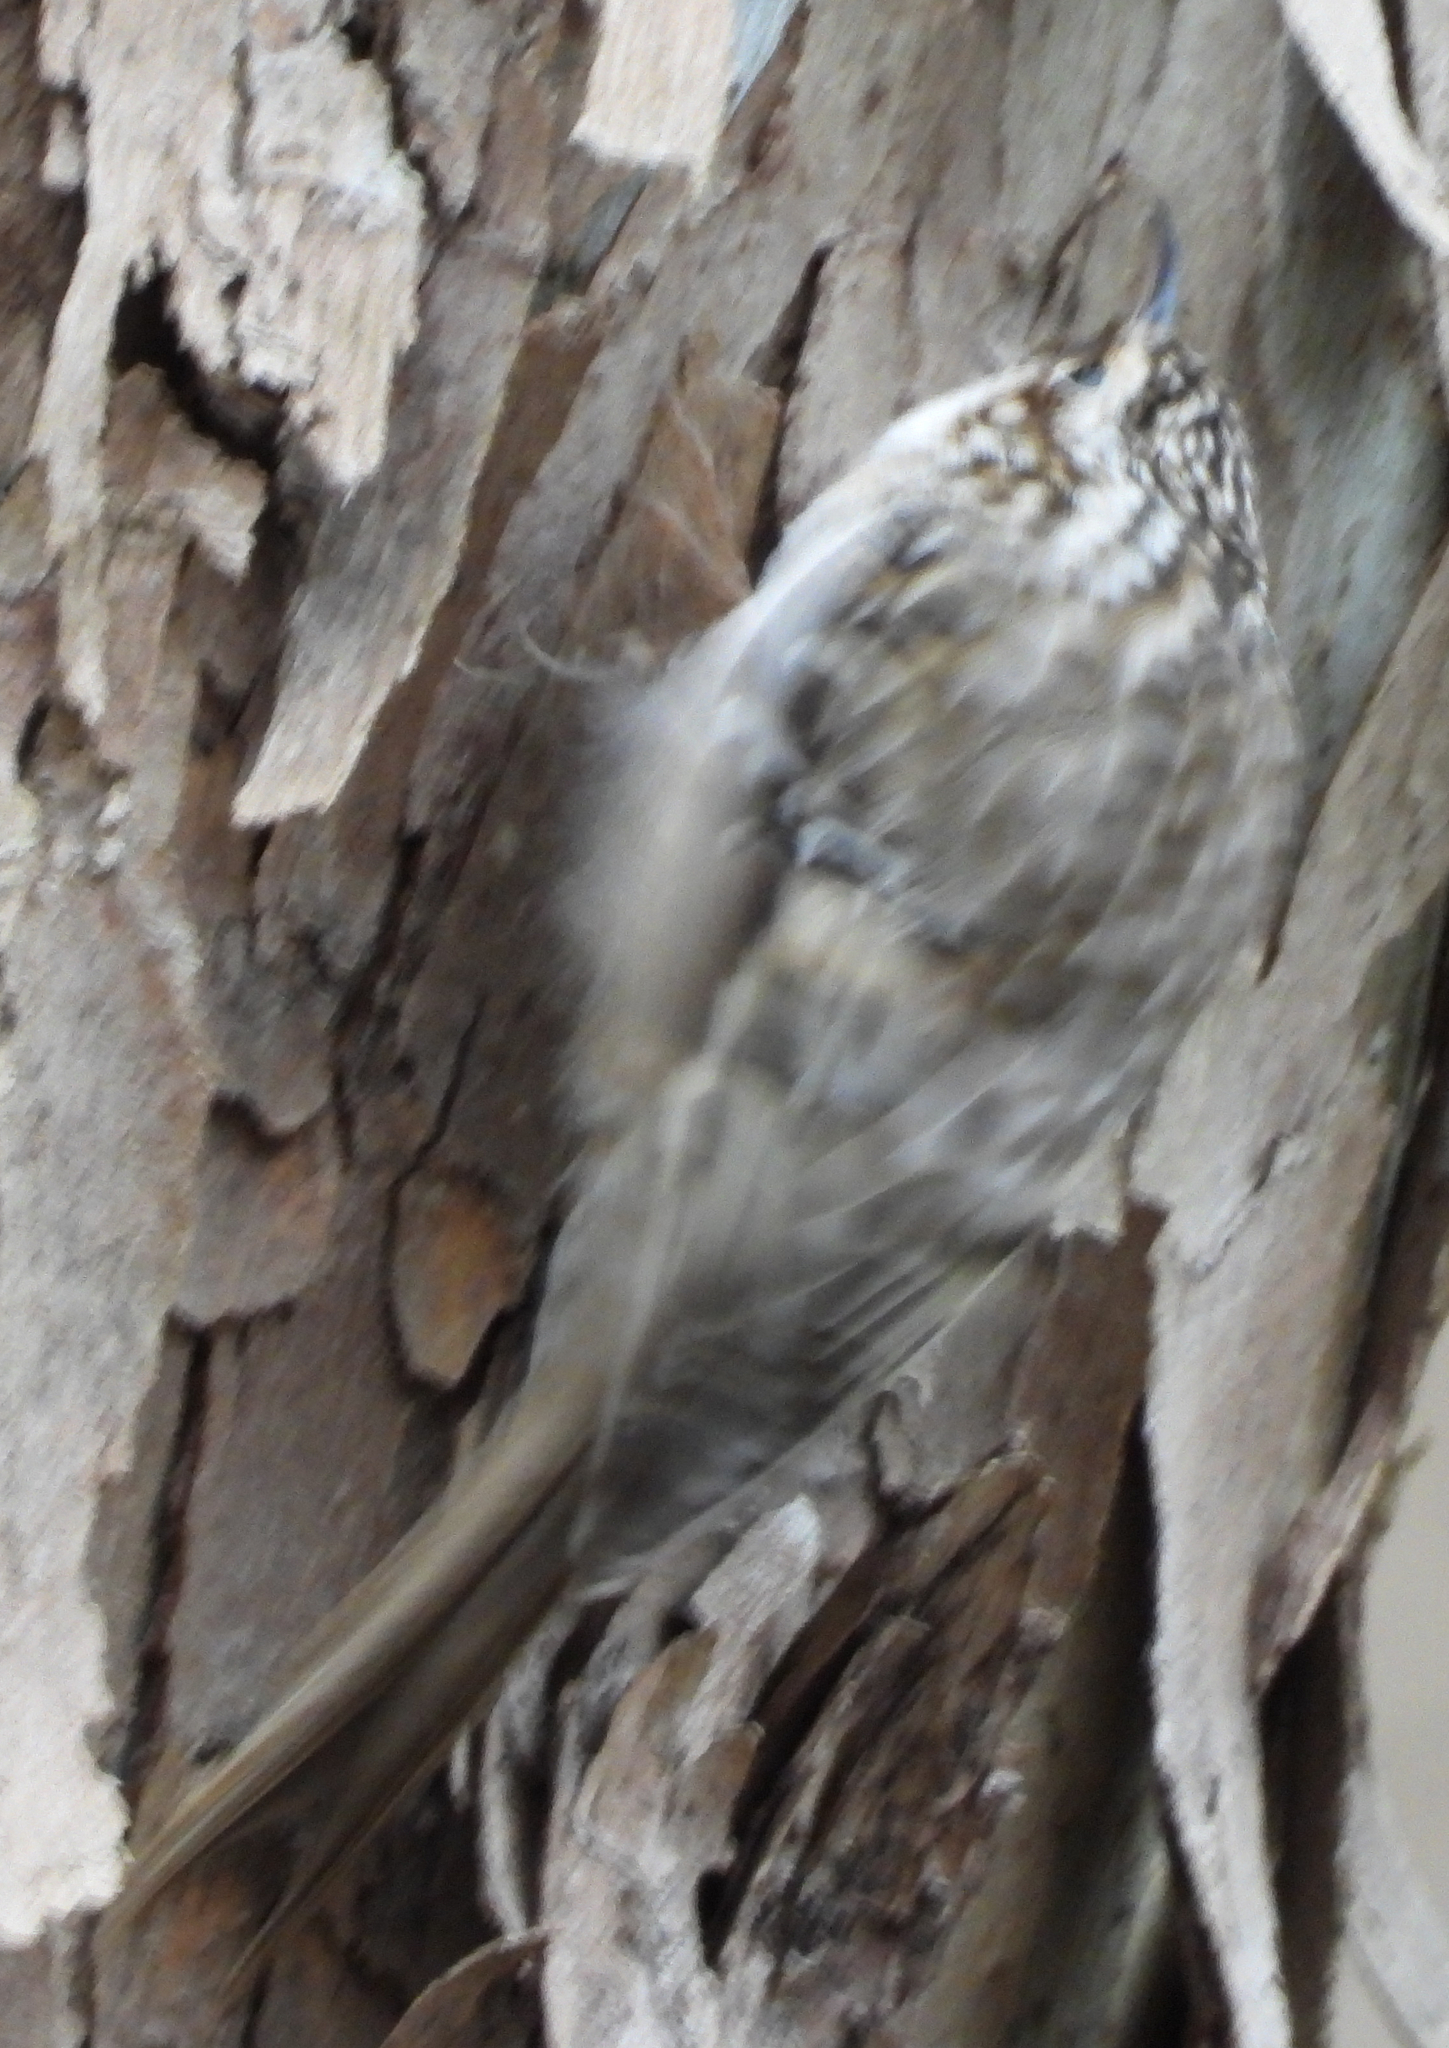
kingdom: Animalia
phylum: Chordata
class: Aves
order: Passeriformes
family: Certhiidae
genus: Certhia
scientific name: Certhia americana
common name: Brown creeper
